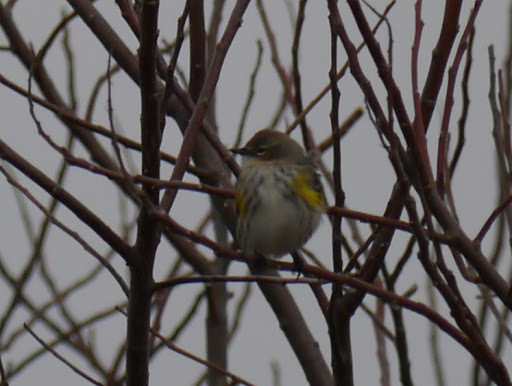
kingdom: Animalia
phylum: Chordata
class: Aves
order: Passeriformes
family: Parulidae
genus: Setophaga
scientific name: Setophaga coronata
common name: Myrtle warbler
